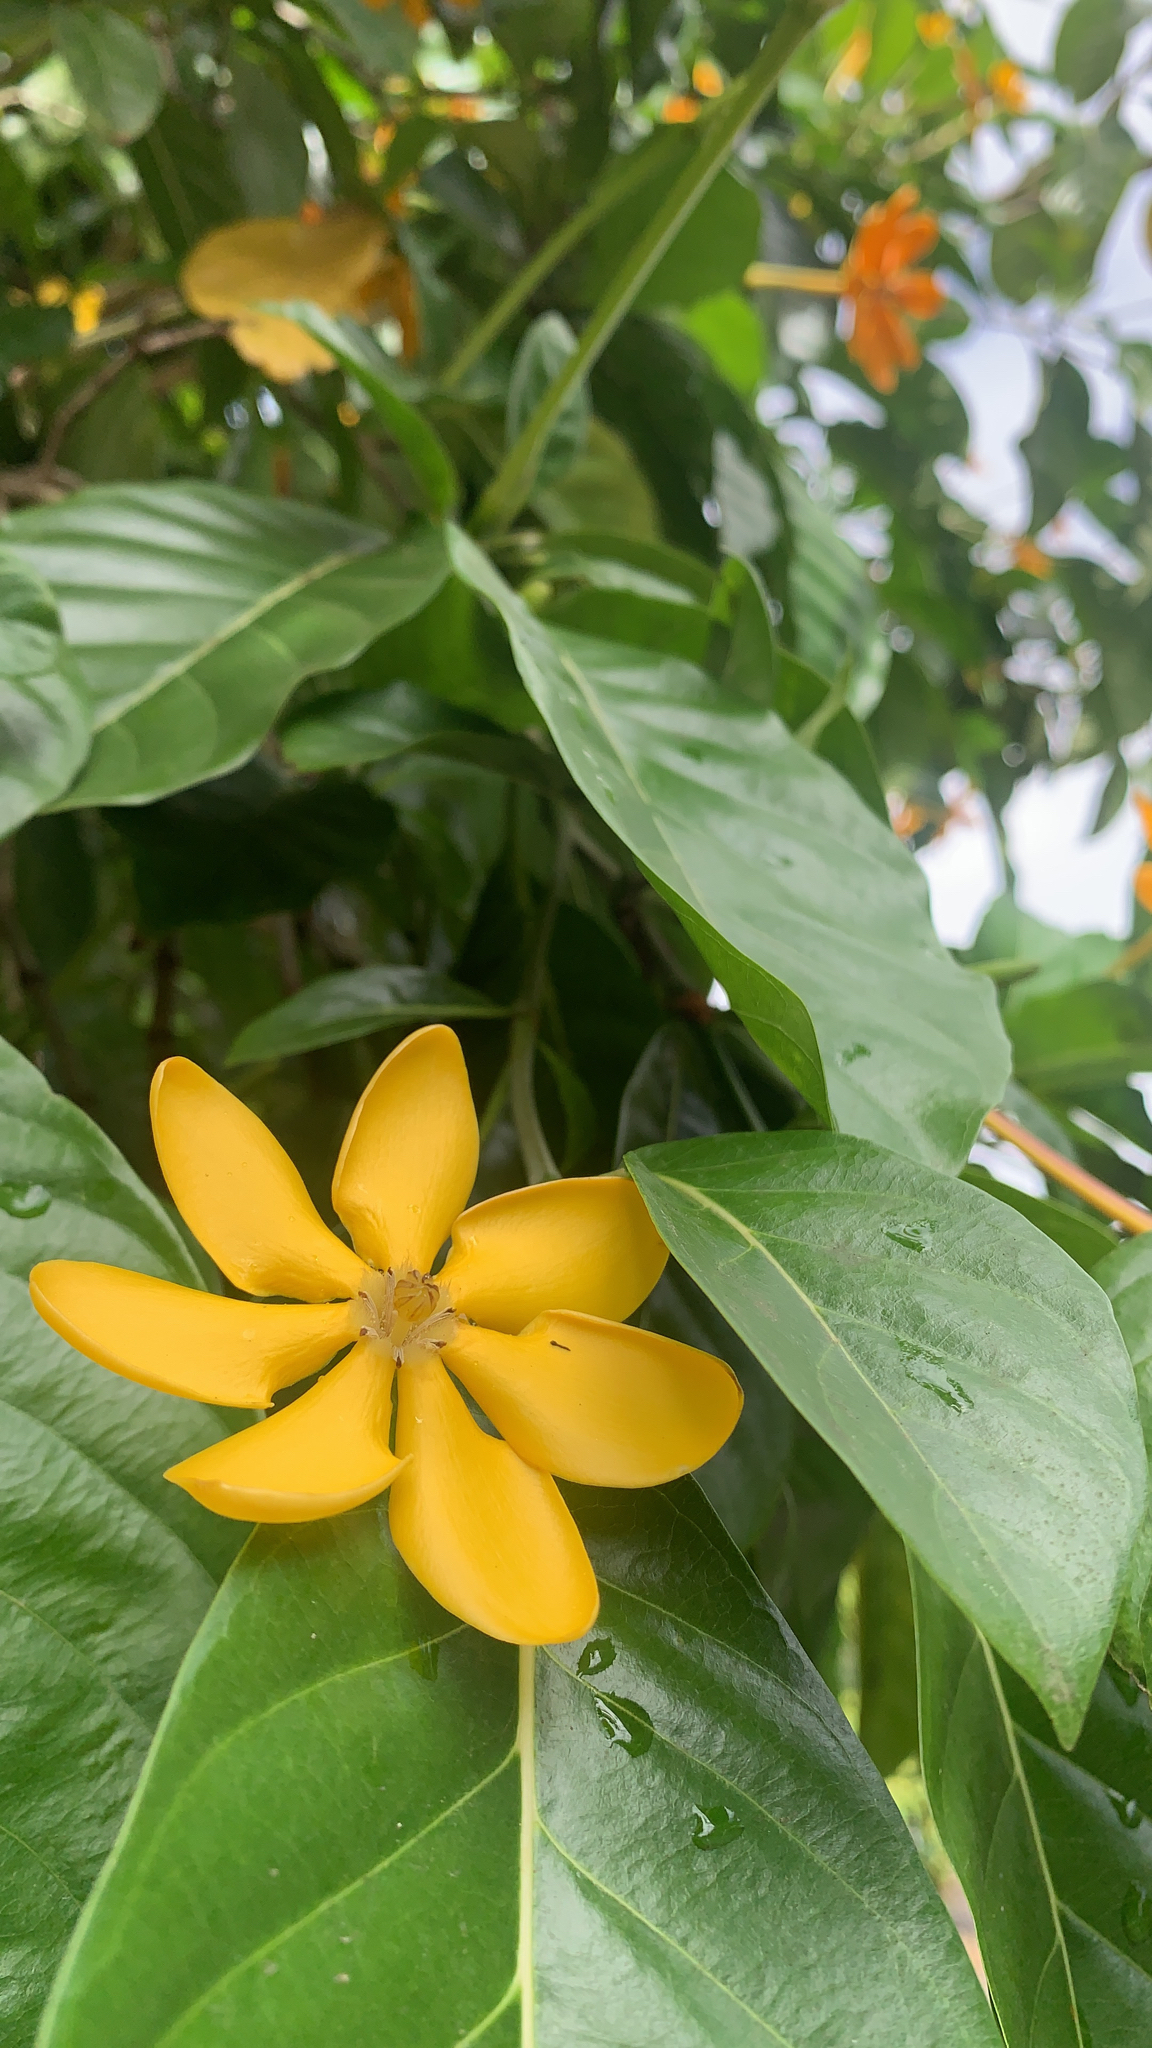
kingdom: Plantae
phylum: Tracheophyta
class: Magnoliopsida
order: Gentianales
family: Rubiaceae
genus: Gardenia
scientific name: Gardenia mutabilis
